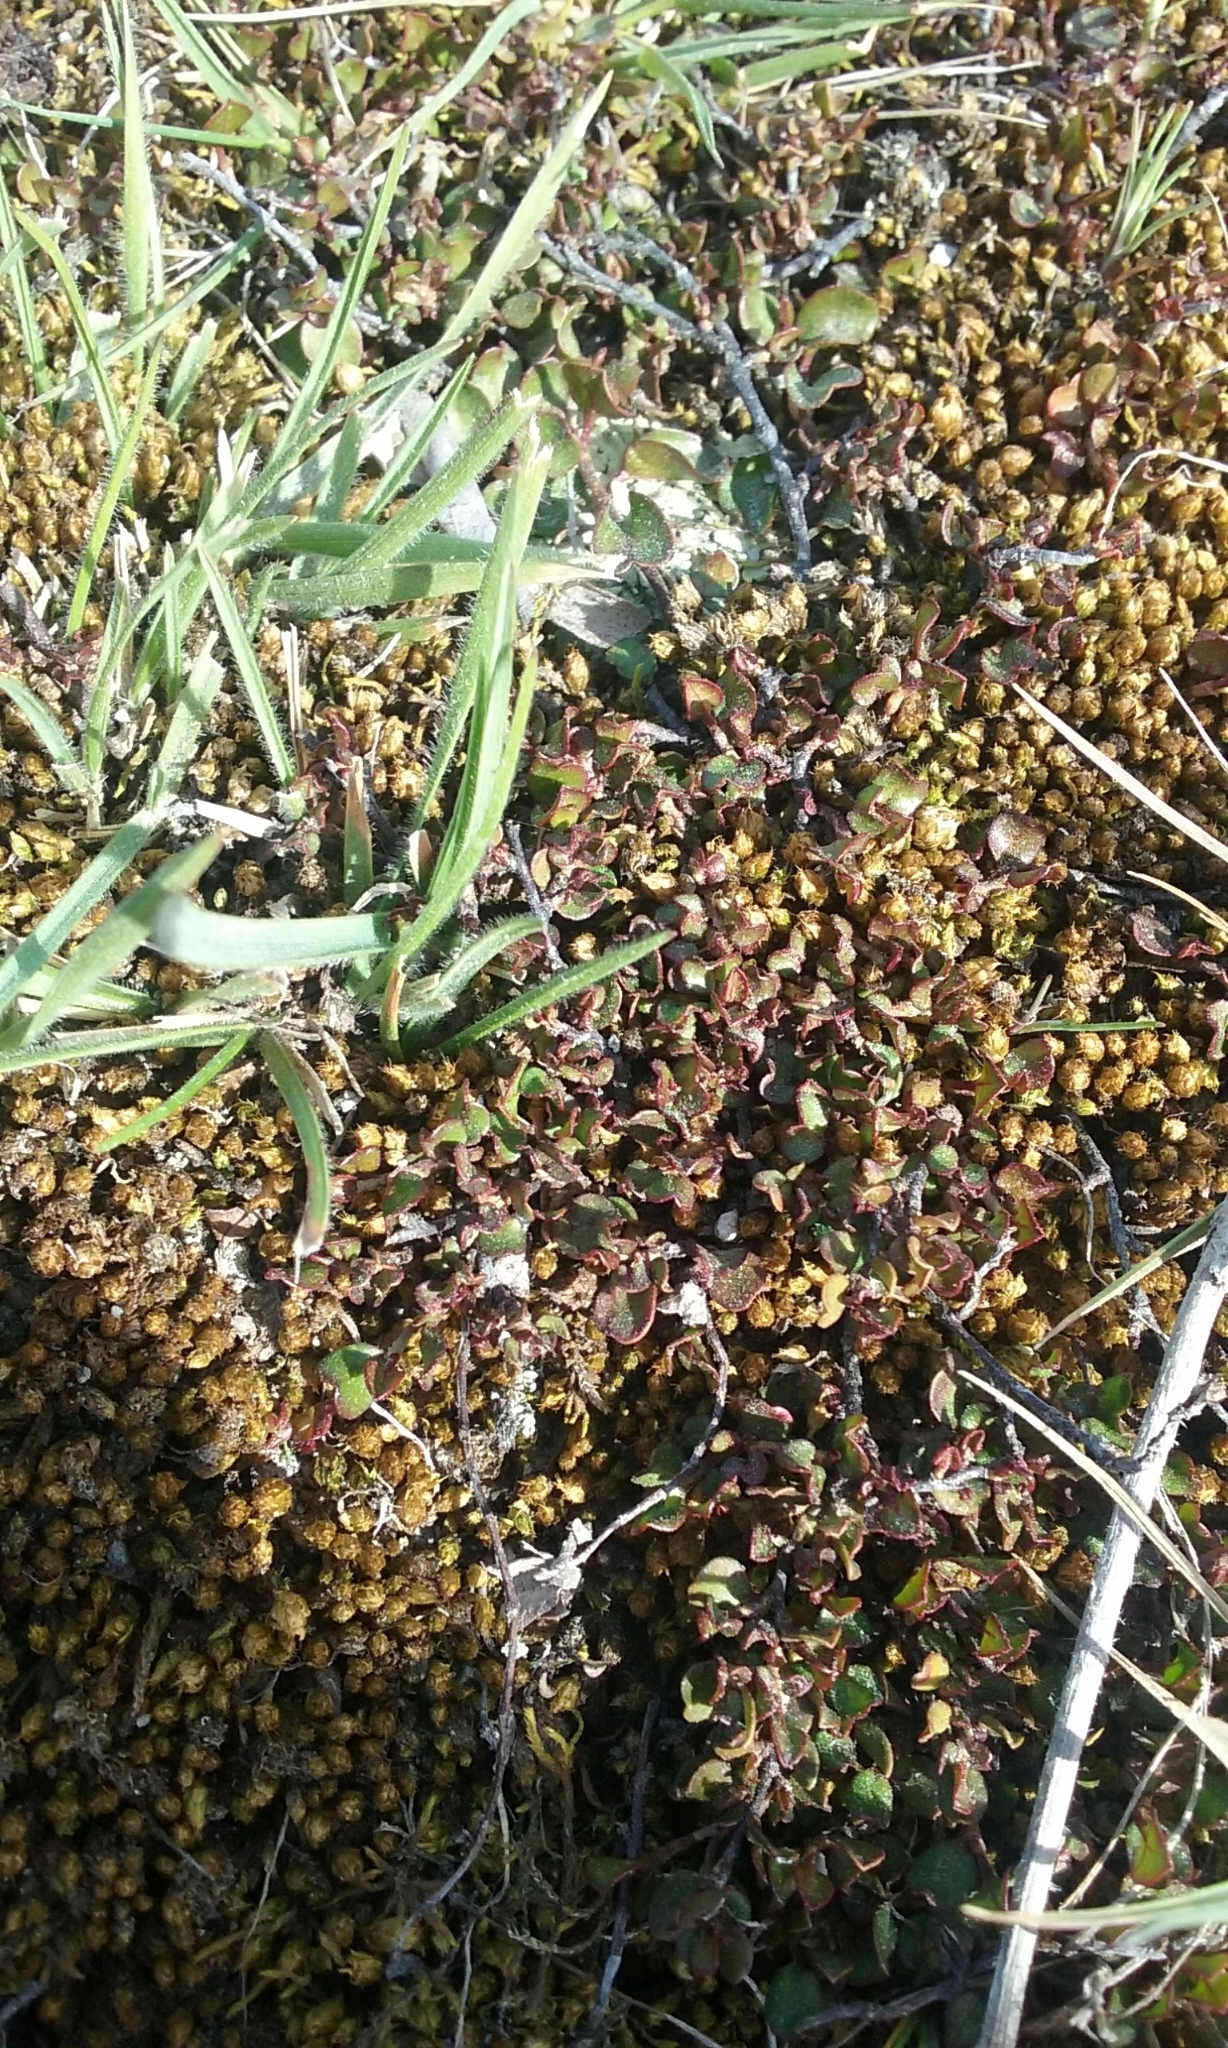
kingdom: Plantae
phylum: Tracheophyta
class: Magnoliopsida
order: Caryophyllales
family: Polygonaceae
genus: Muehlenbeckia
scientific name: Muehlenbeckia axillaris
